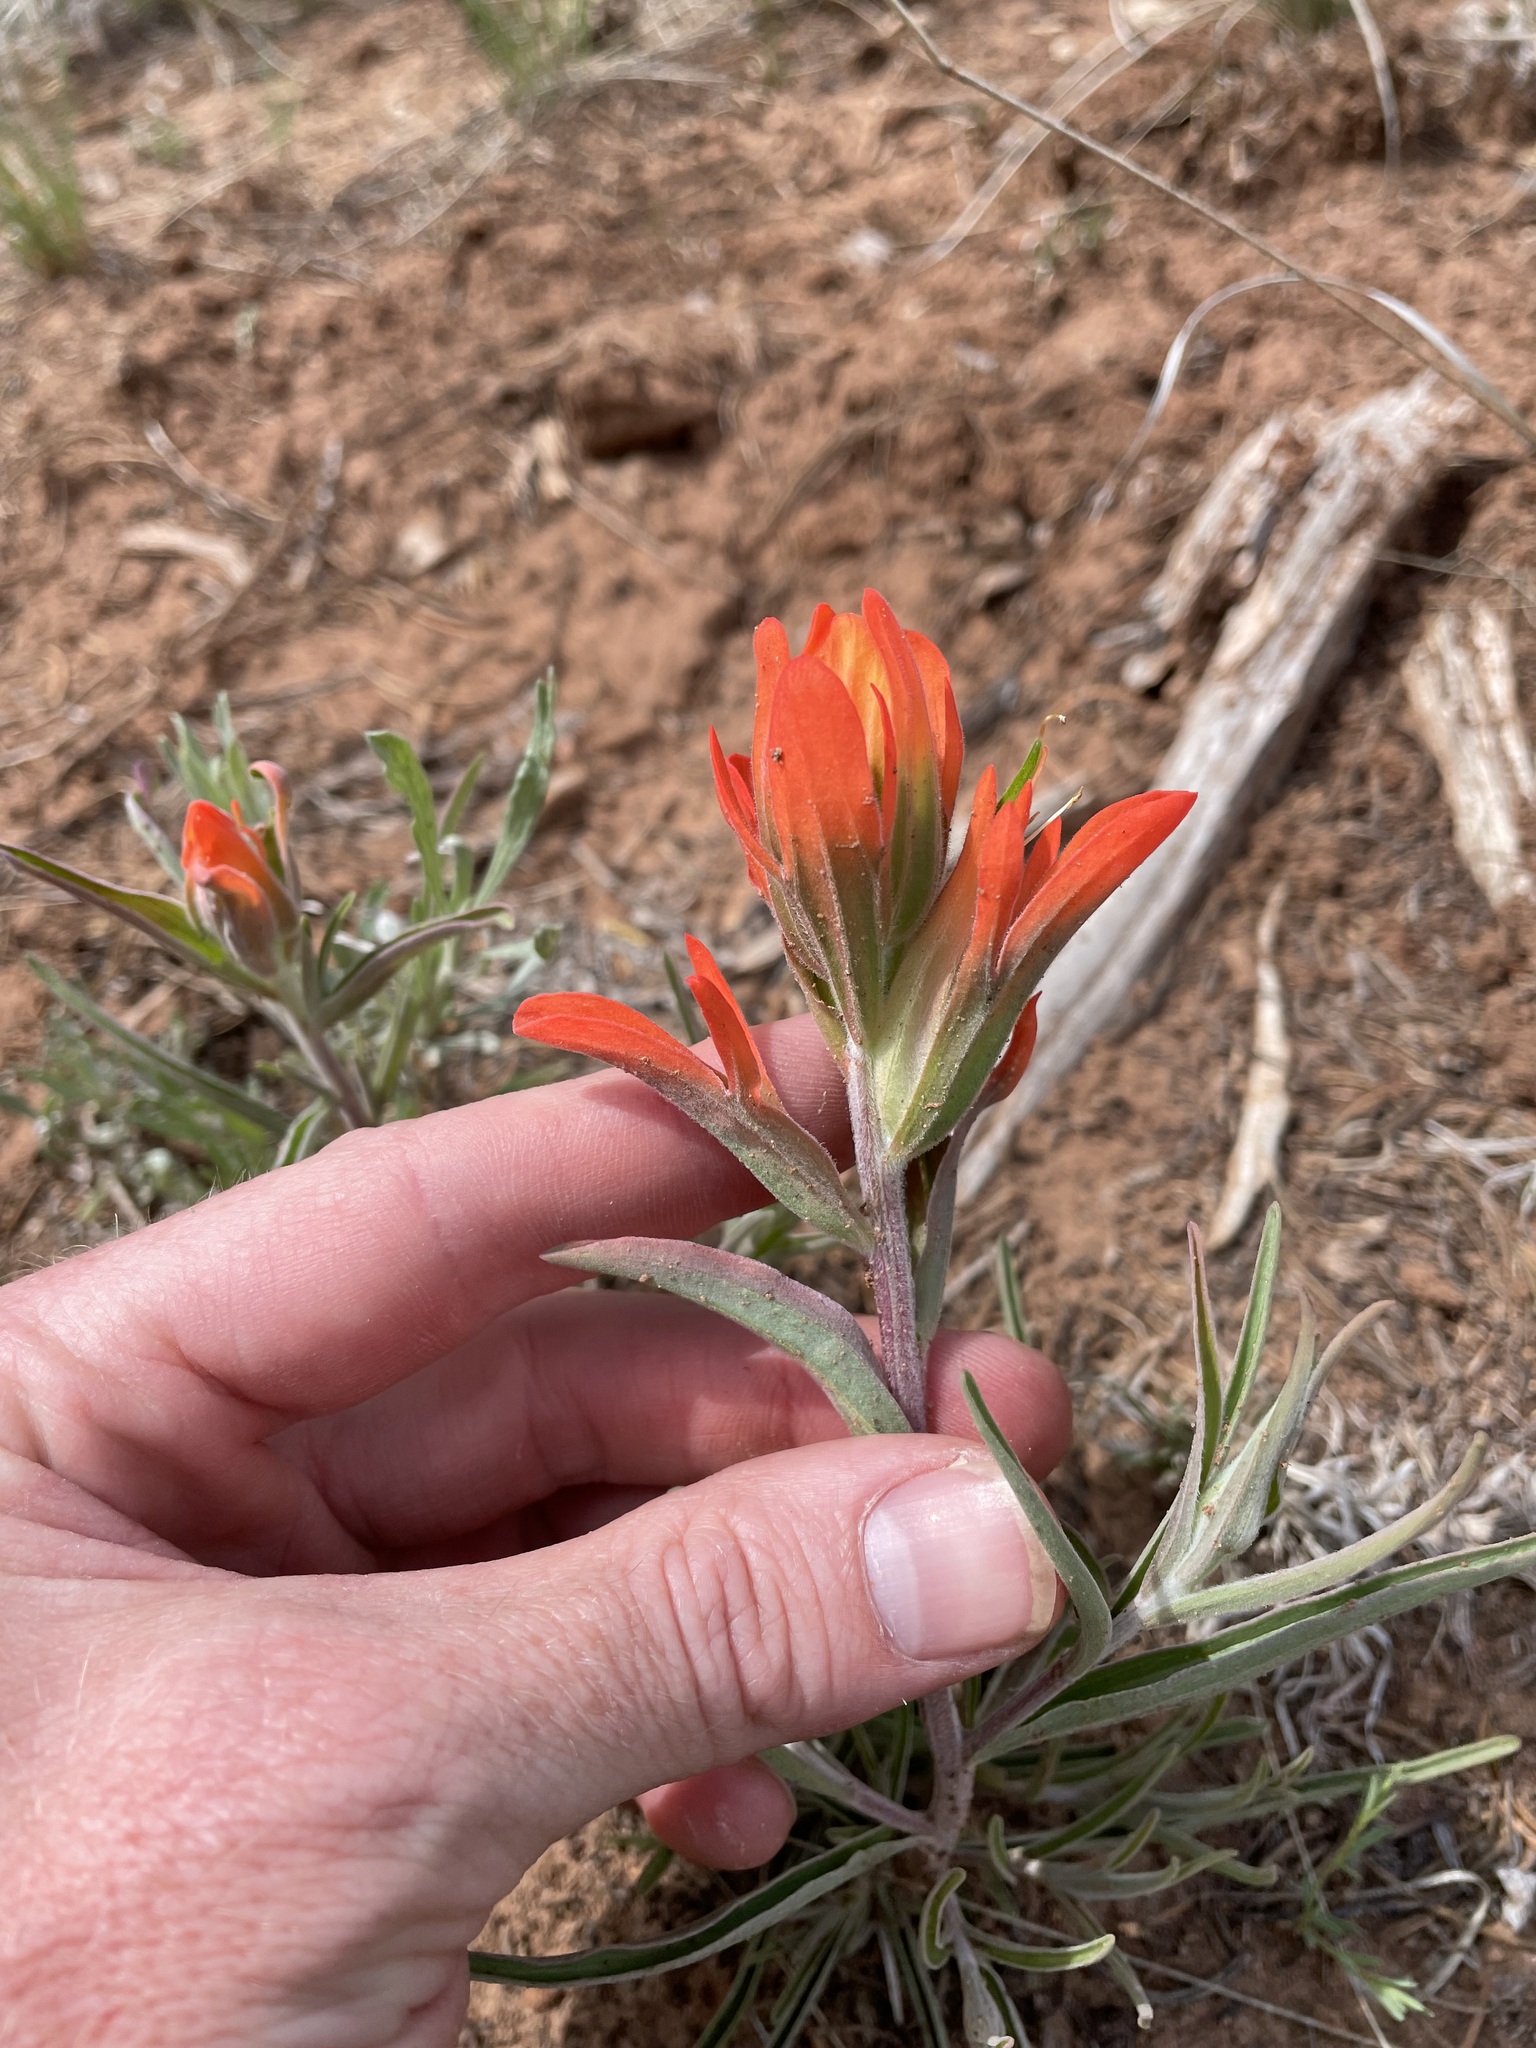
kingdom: Plantae
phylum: Tracheophyta
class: Magnoliopsida
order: Lamiales
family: Orobanchaceae
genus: Castilleja
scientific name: Castilleja integra
